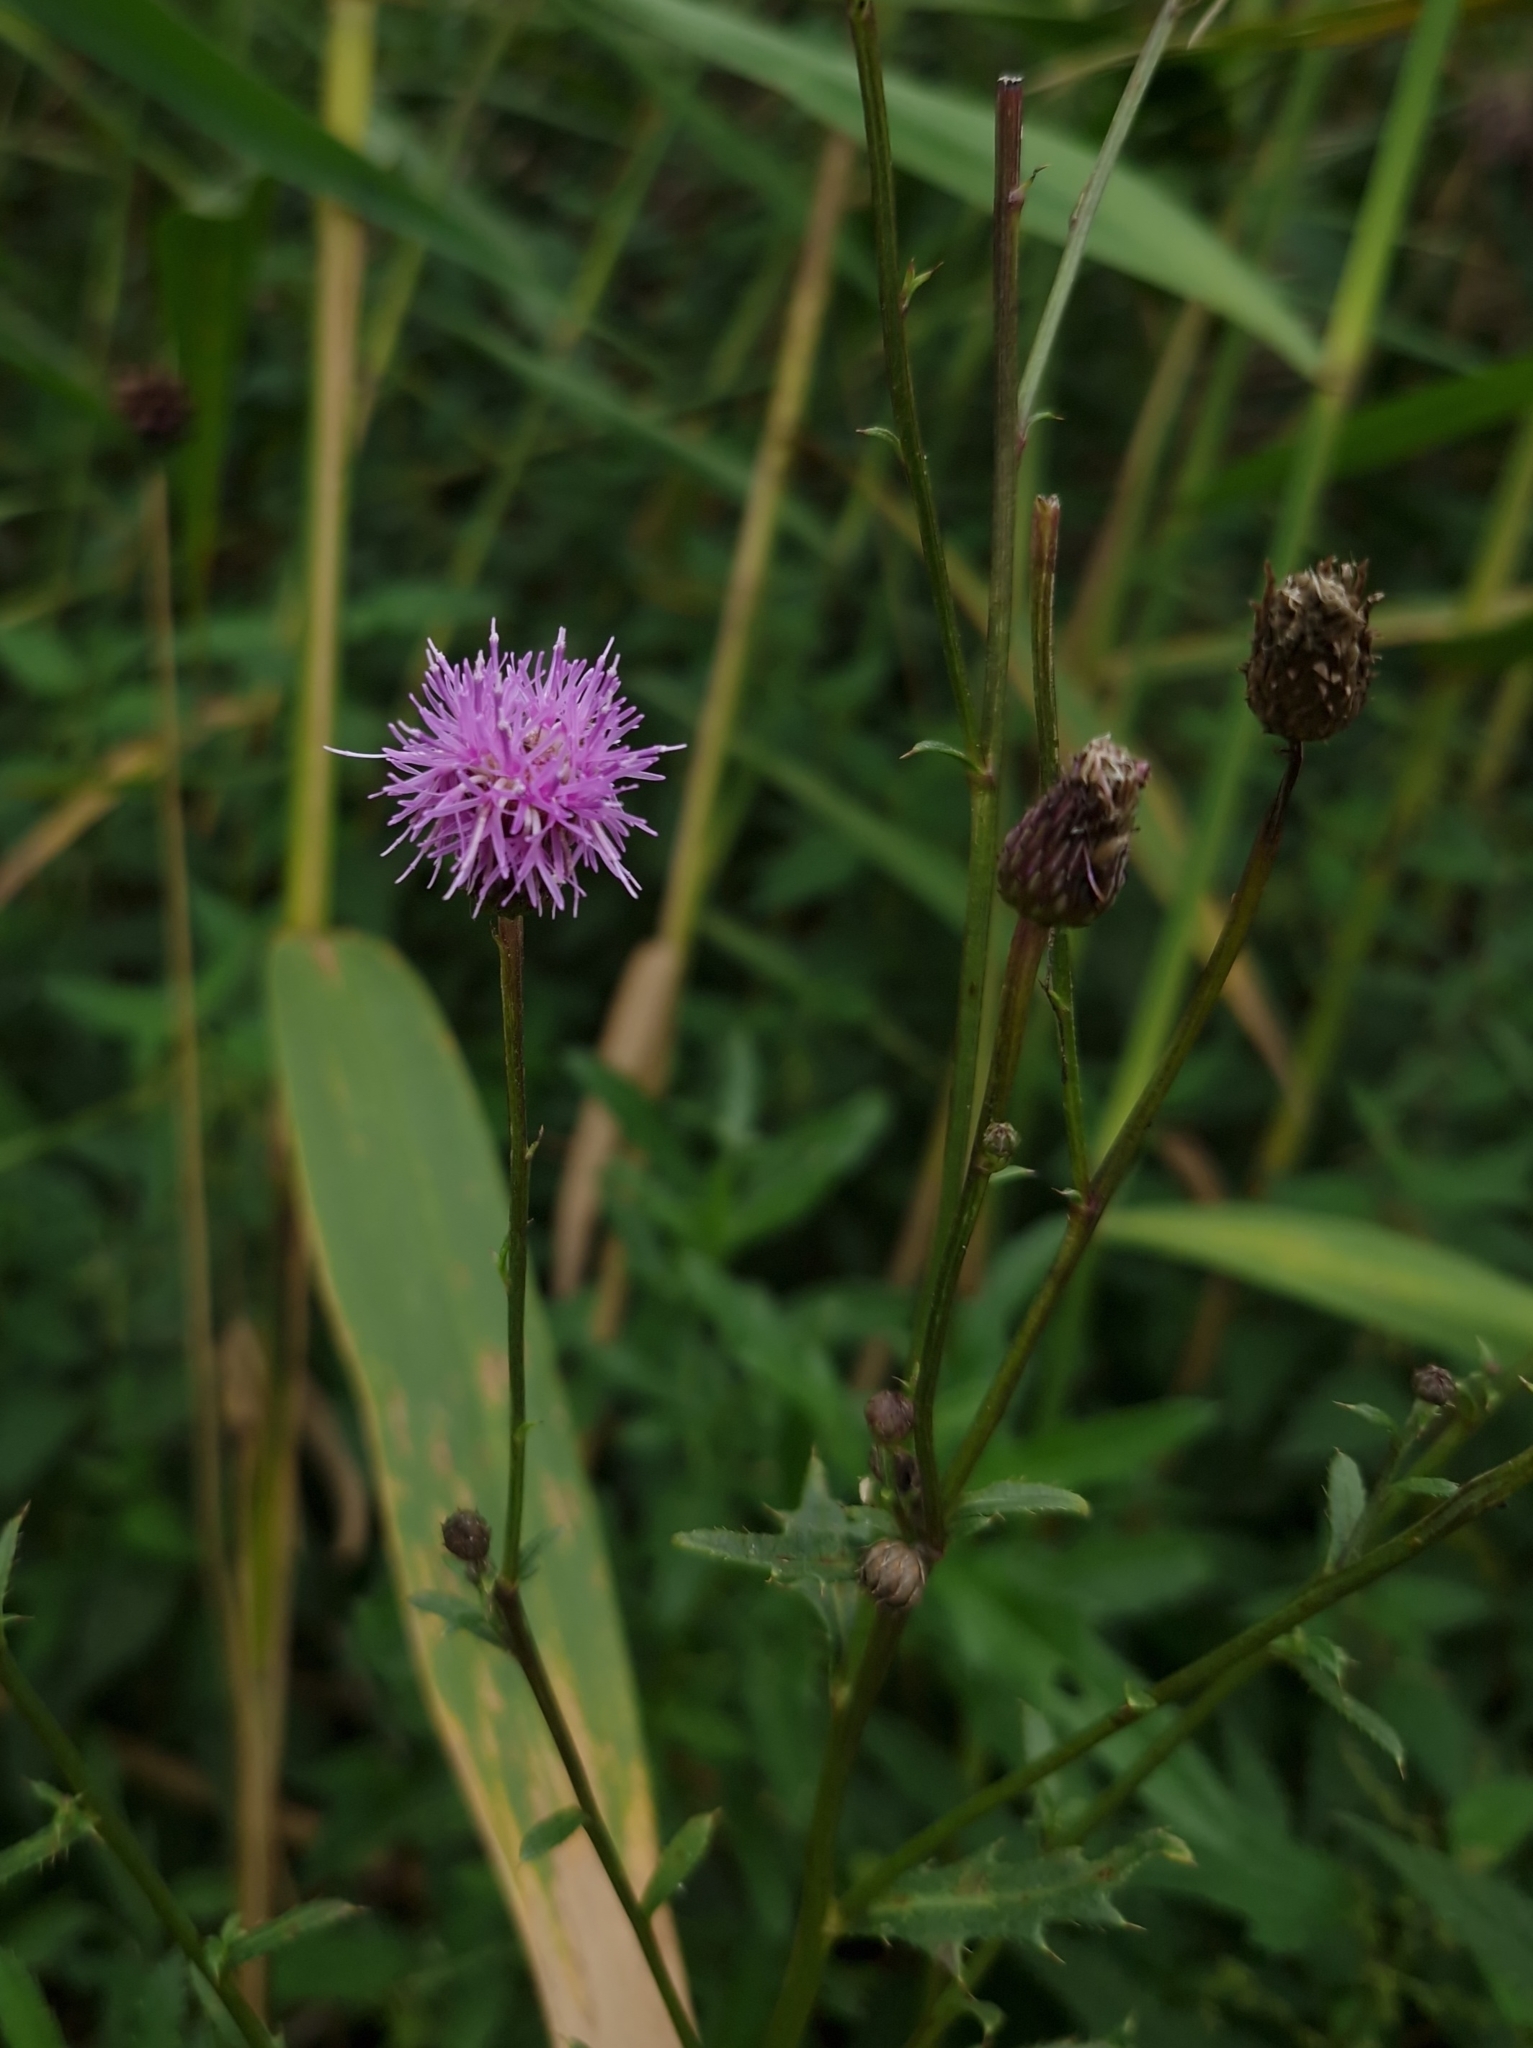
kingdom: Plantae
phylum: Tracheophyta
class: Magnoliopsida
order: Asterales
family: Asteraceae
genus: Cirsium
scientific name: Cirsium arvense
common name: Creeping thistle
